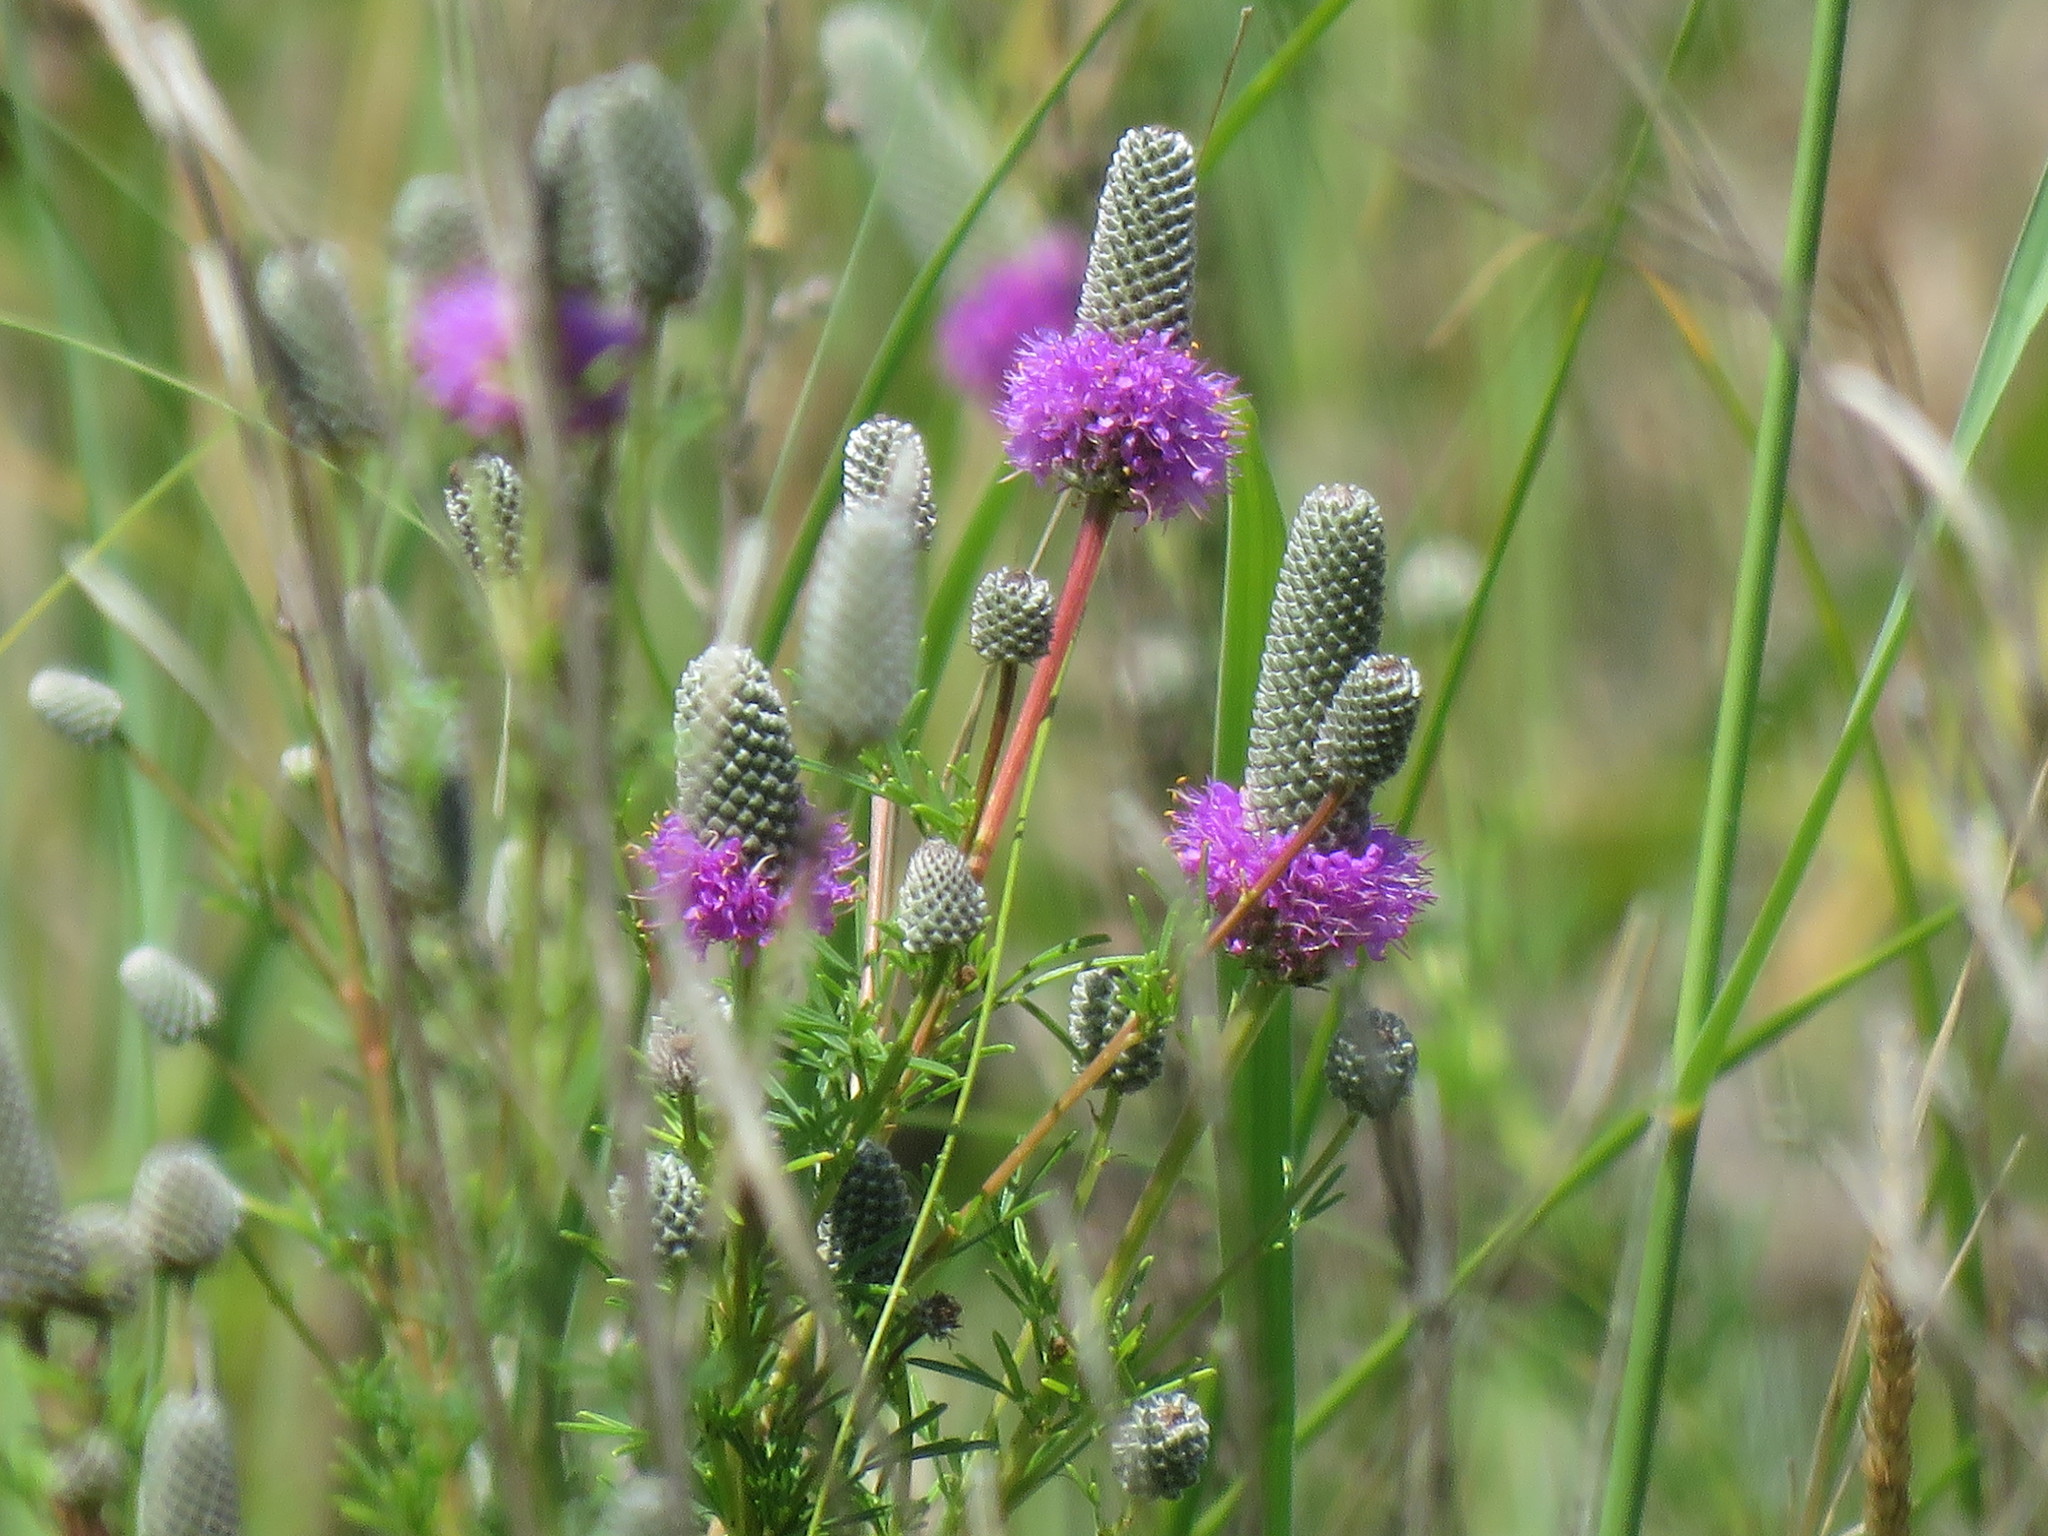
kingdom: Plantae
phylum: Tracheophyta
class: Magnoliopsida
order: Fabales
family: Fabaceae
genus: Dalea
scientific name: Dalea purpurea
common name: Purple prairie-clover
